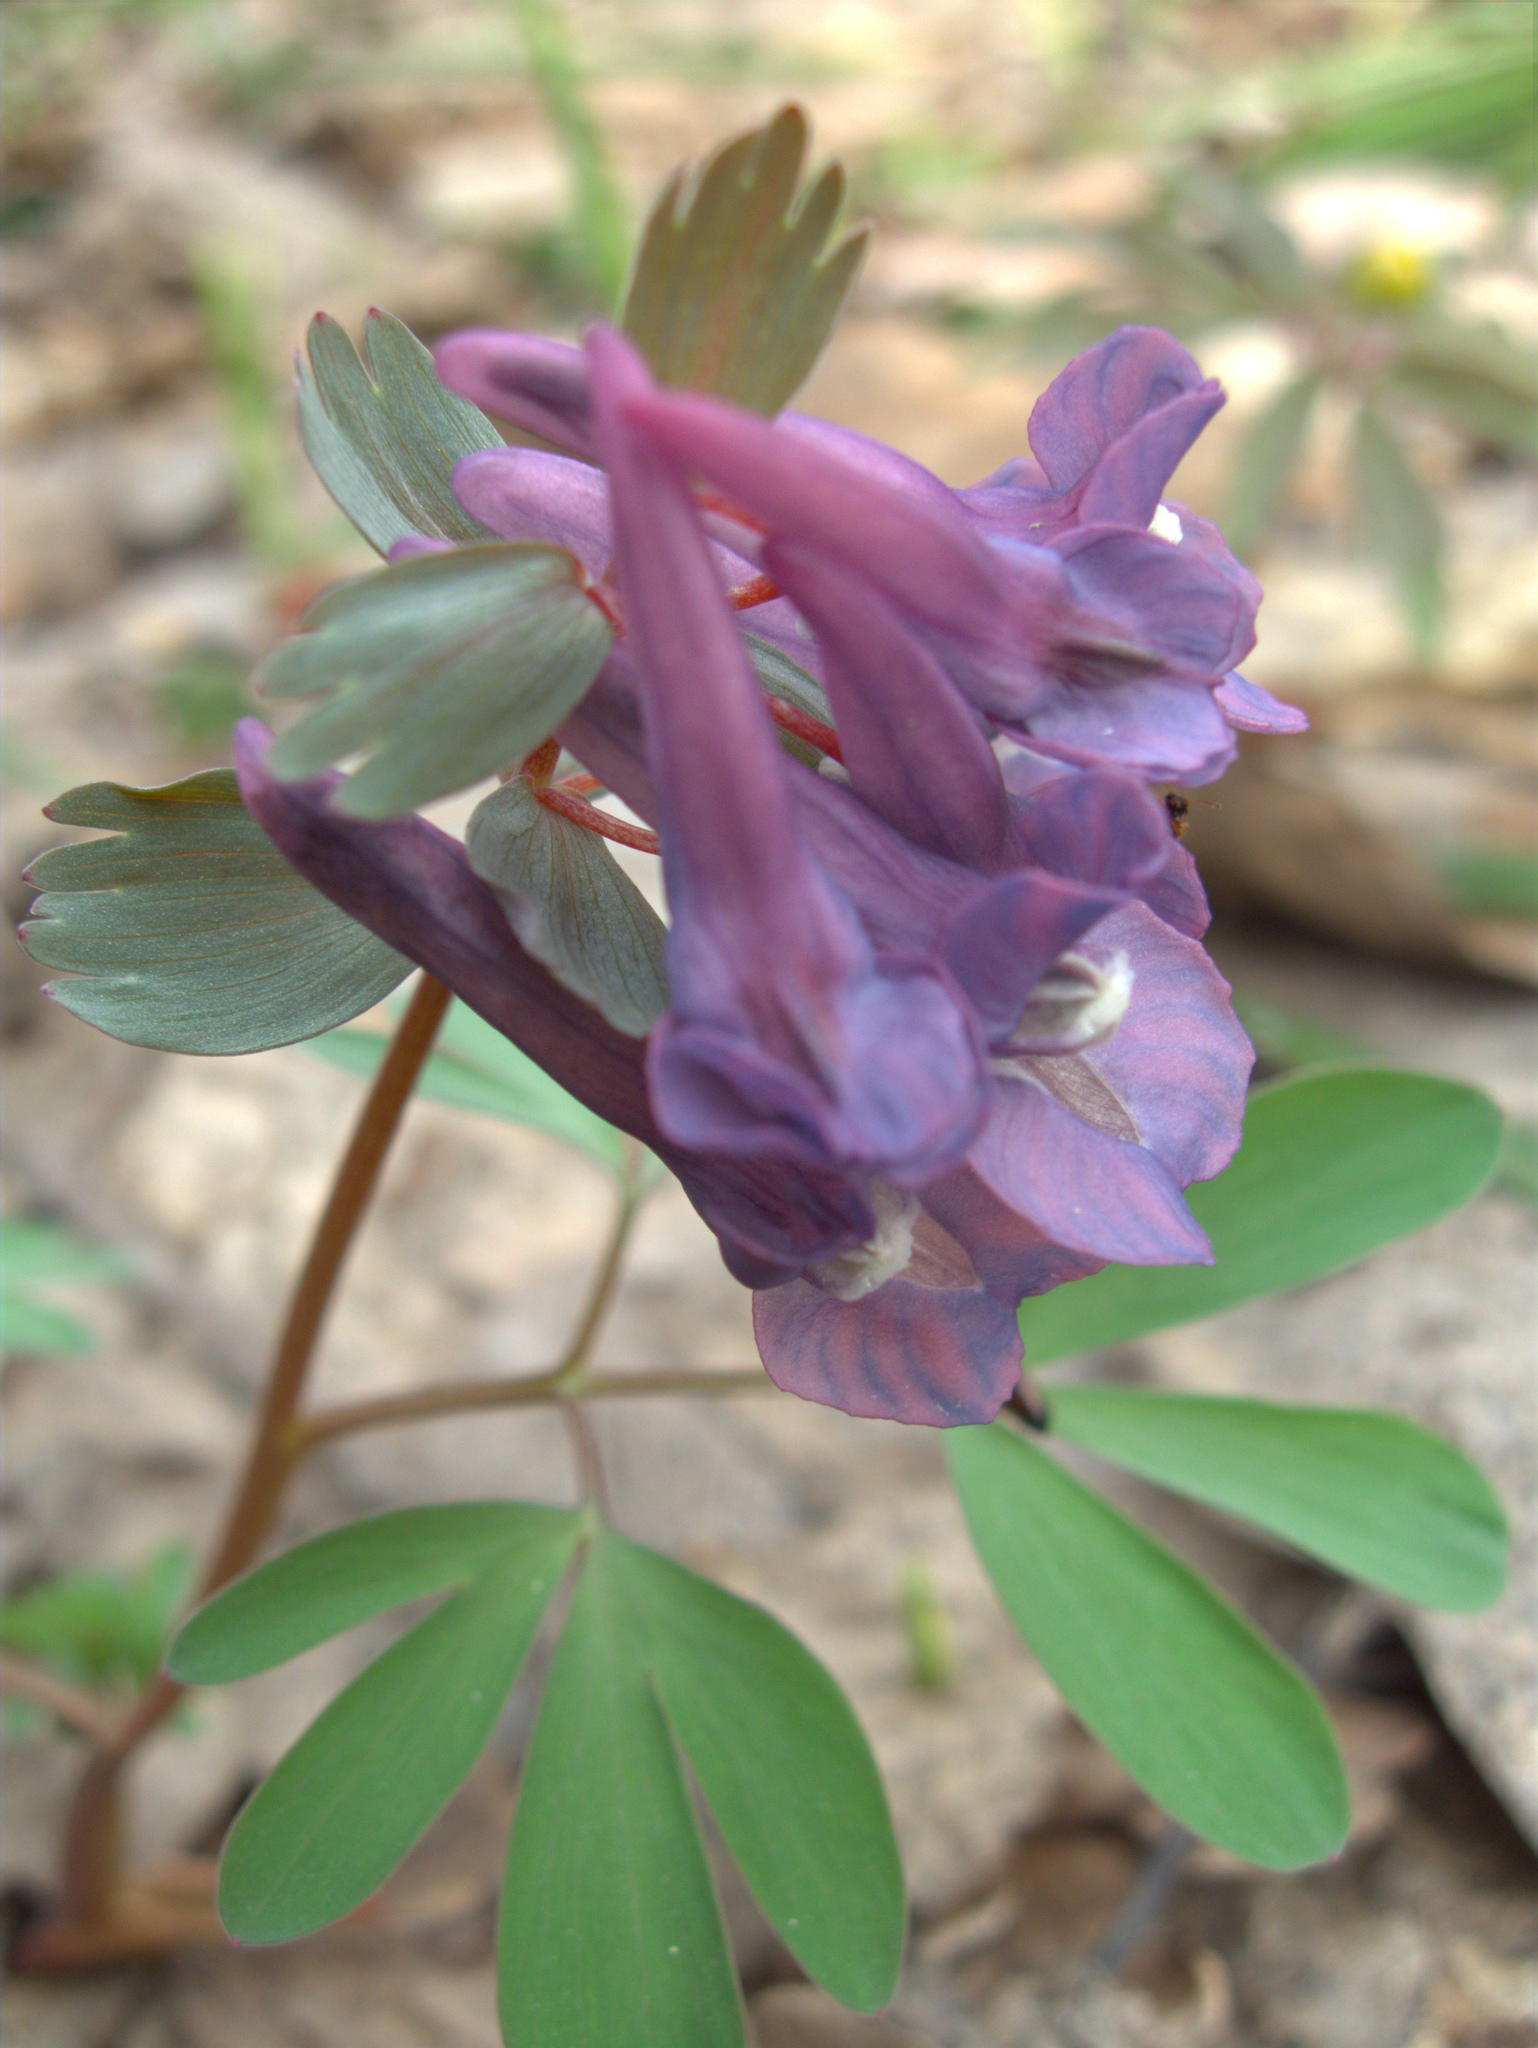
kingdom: Plantae
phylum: Tracheophyta
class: Magnoliopsida
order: Ranunculales
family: Papaveraceae
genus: Corydalis
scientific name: Corydalis solida
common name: Bird-in-a-bush
